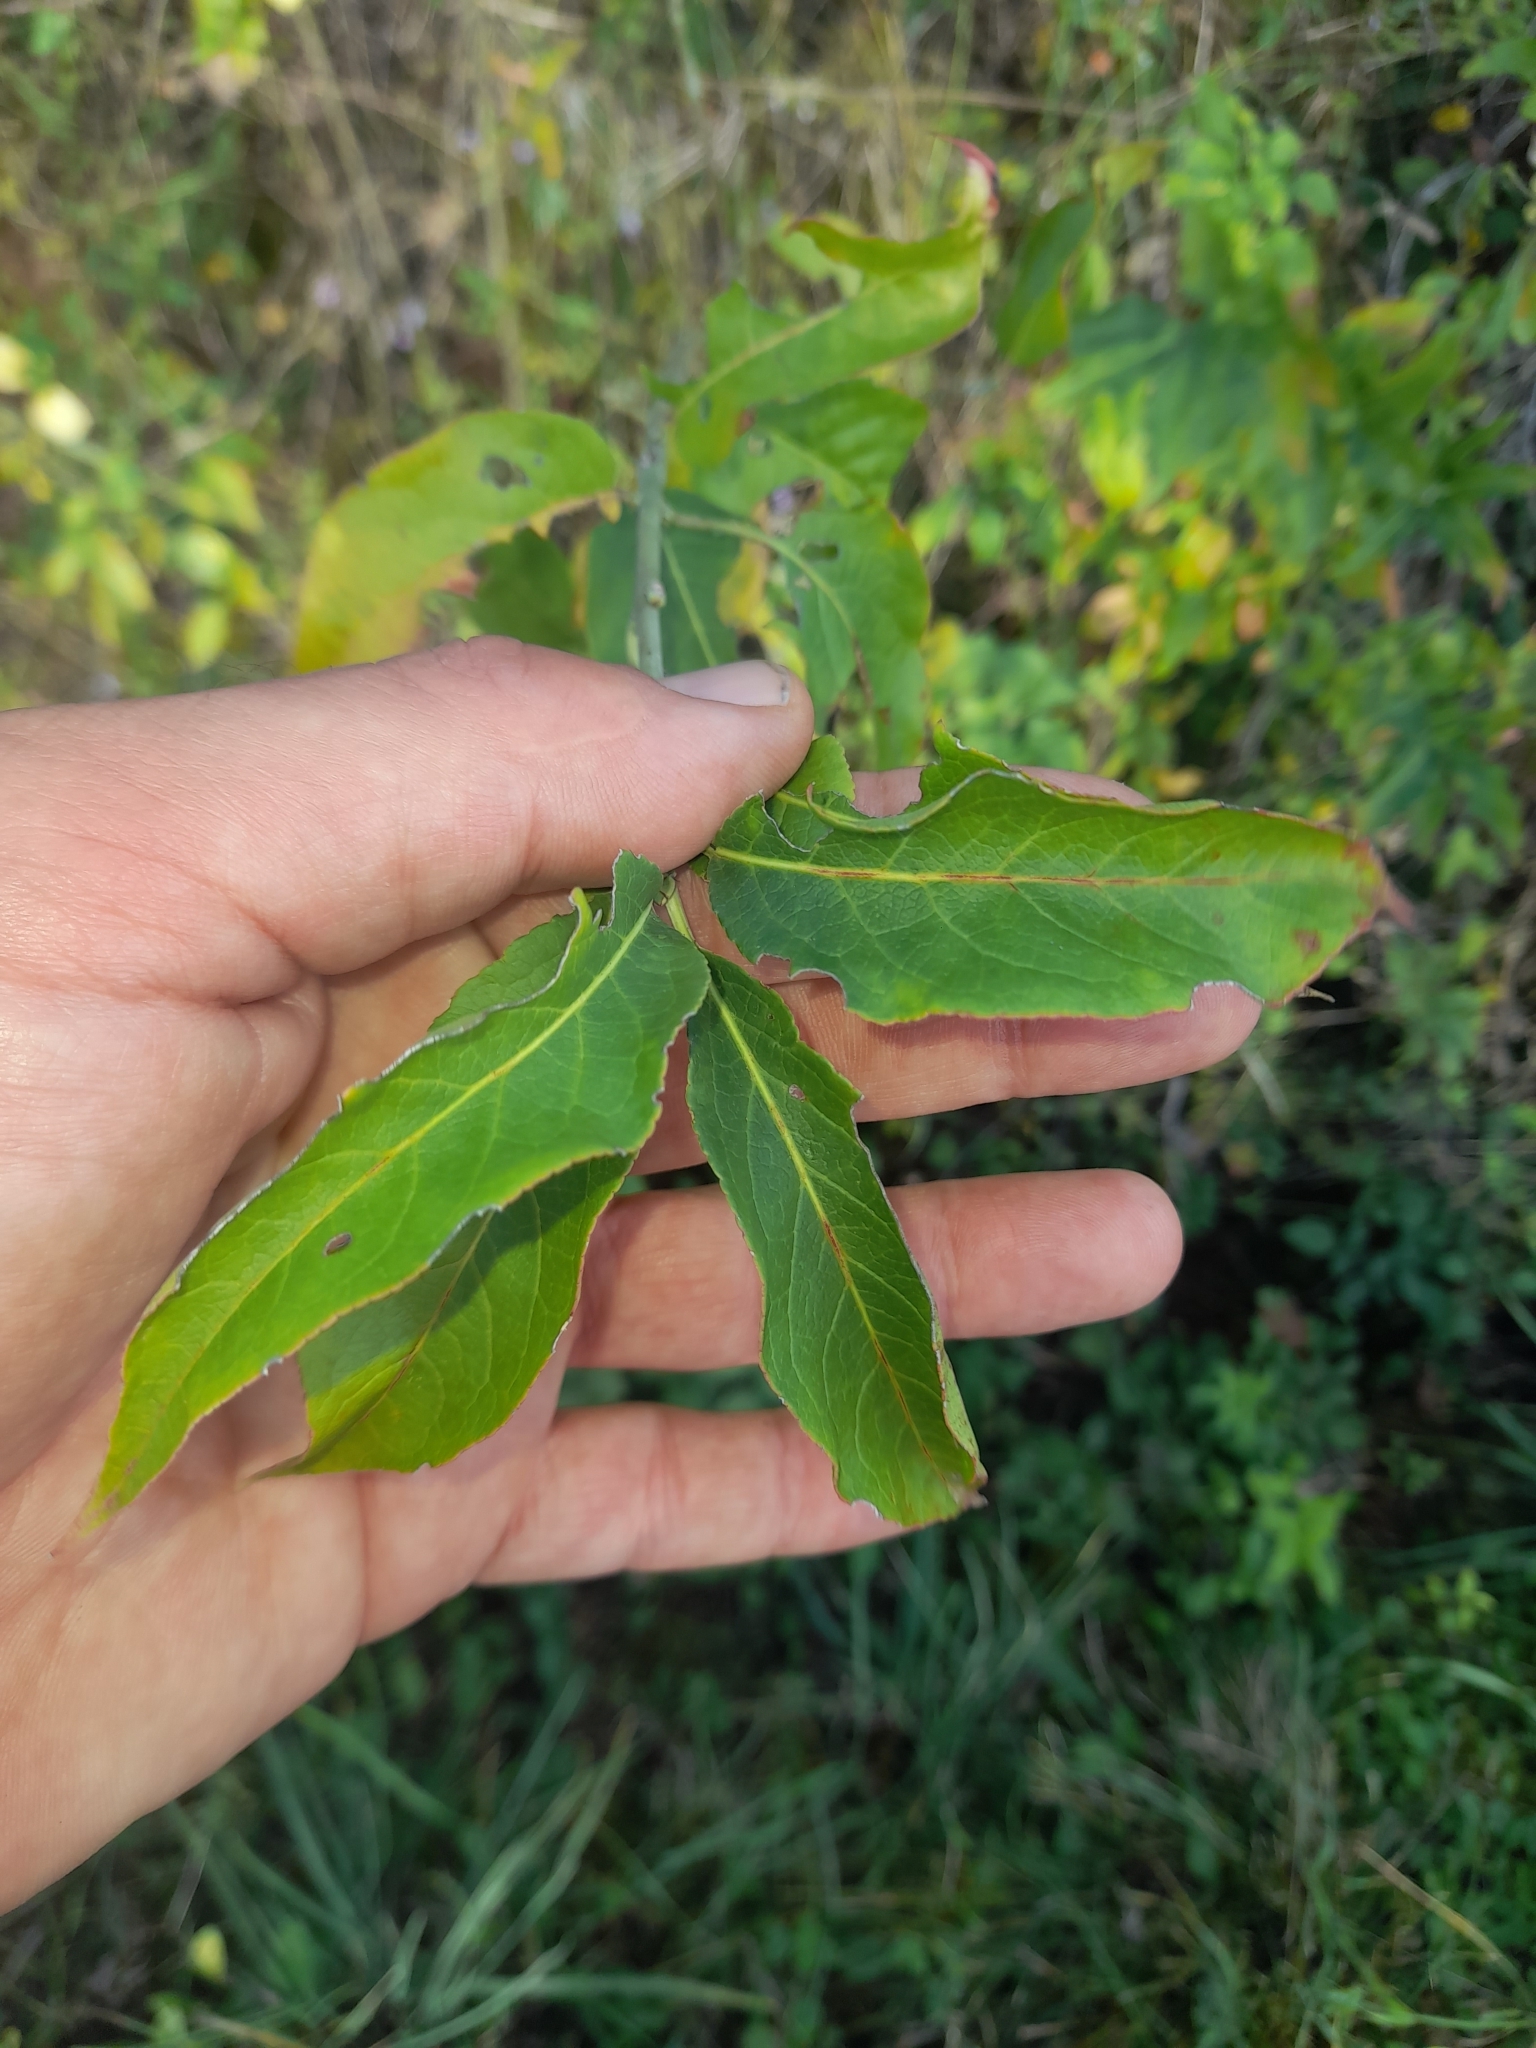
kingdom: Plantae
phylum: Tracheophyta
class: Magnoliopsida
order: Celastrales
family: Celastraceae
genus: Euonymus
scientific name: Euonymus europaeus
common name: Spindle
